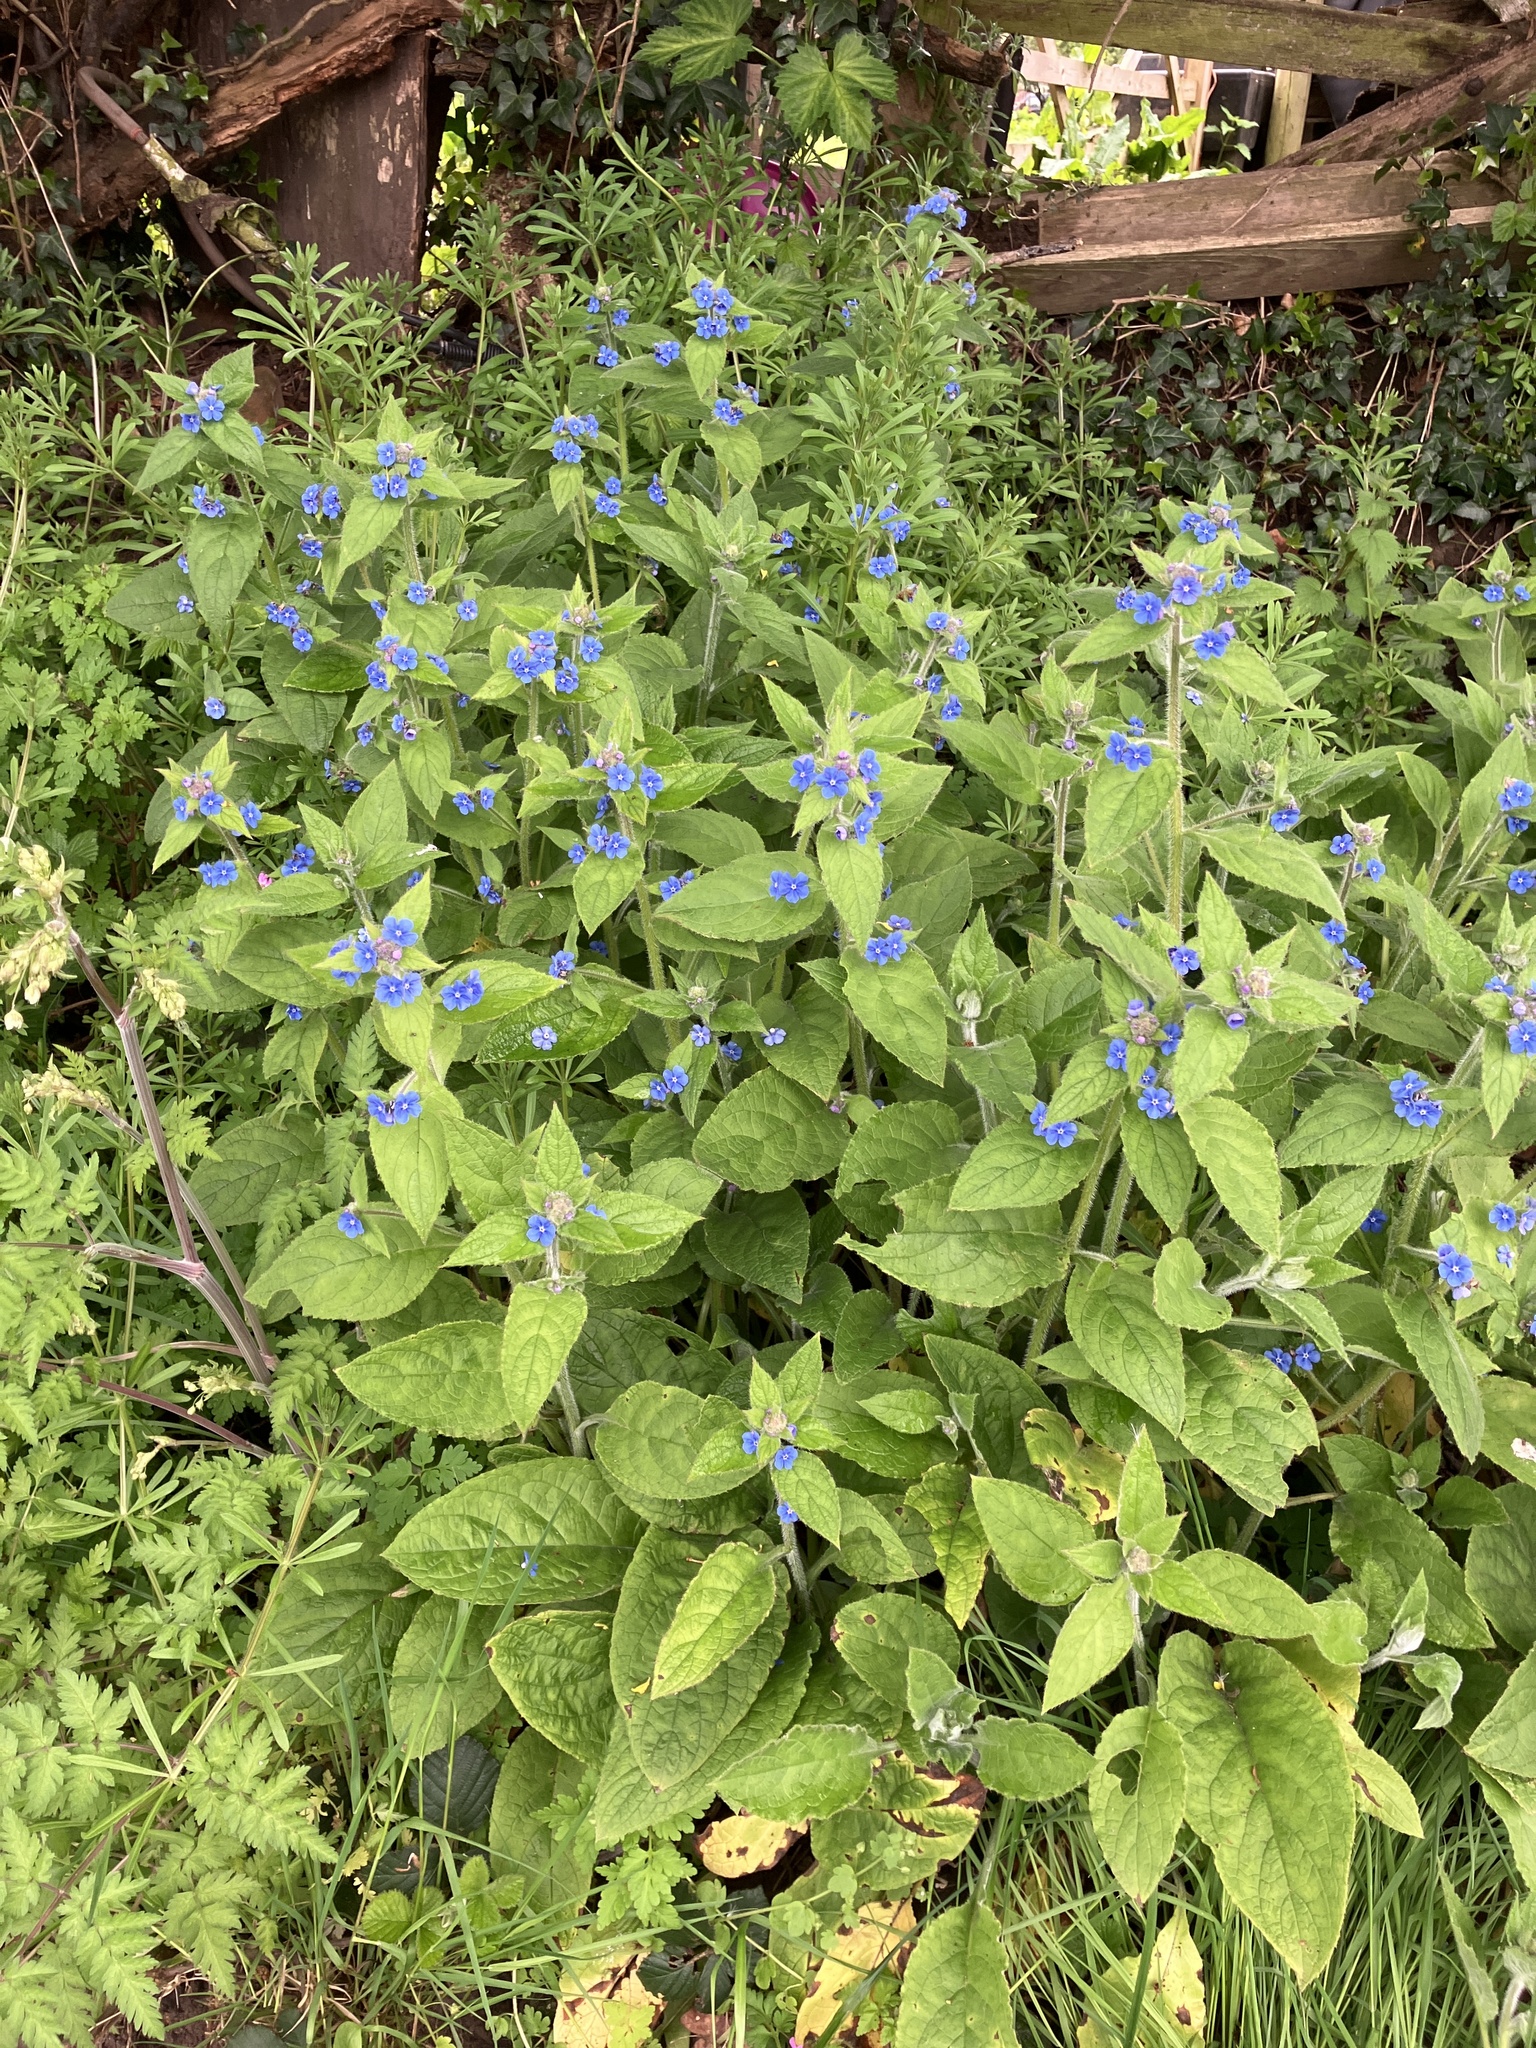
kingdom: Plantae
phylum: Tracheophyta
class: Magnoliopsida
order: Boraginales
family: Boraginaceae
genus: Pentaglottis
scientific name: Pentaglottis sempervirens
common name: Green alkanet
